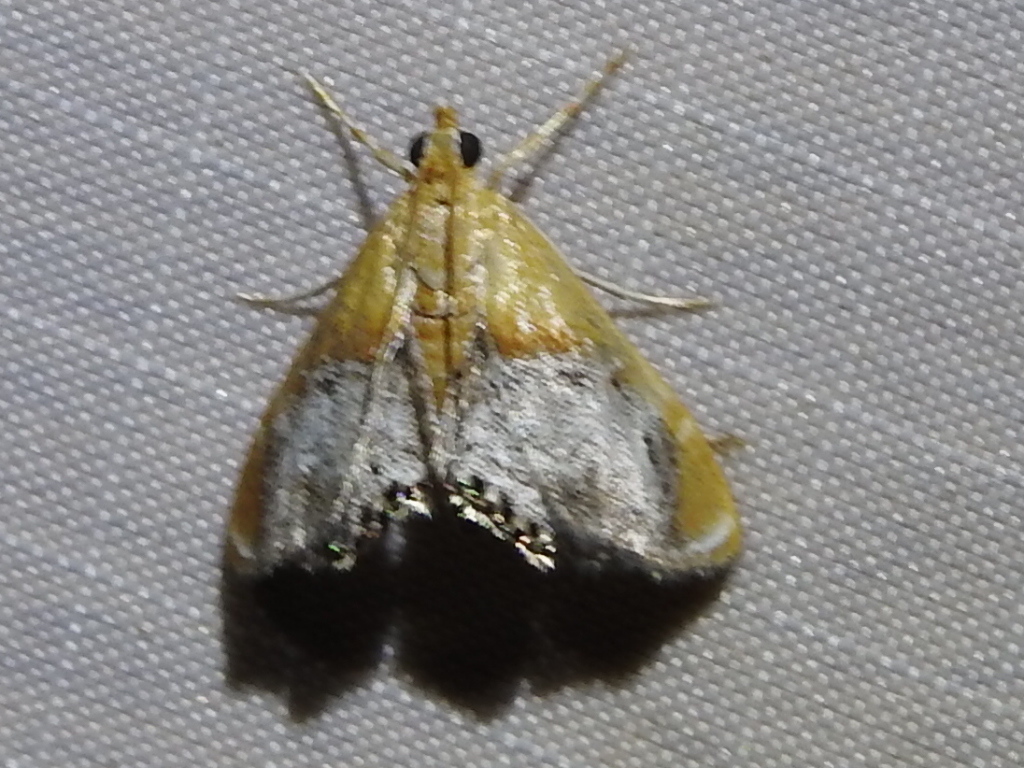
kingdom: Animalia
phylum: Arthropoda
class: Insecta
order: Lepidoptera
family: Crambidae
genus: Chalcoela
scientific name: Chalcoela iphitalis
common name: Sooty-winged chalcoela moth
